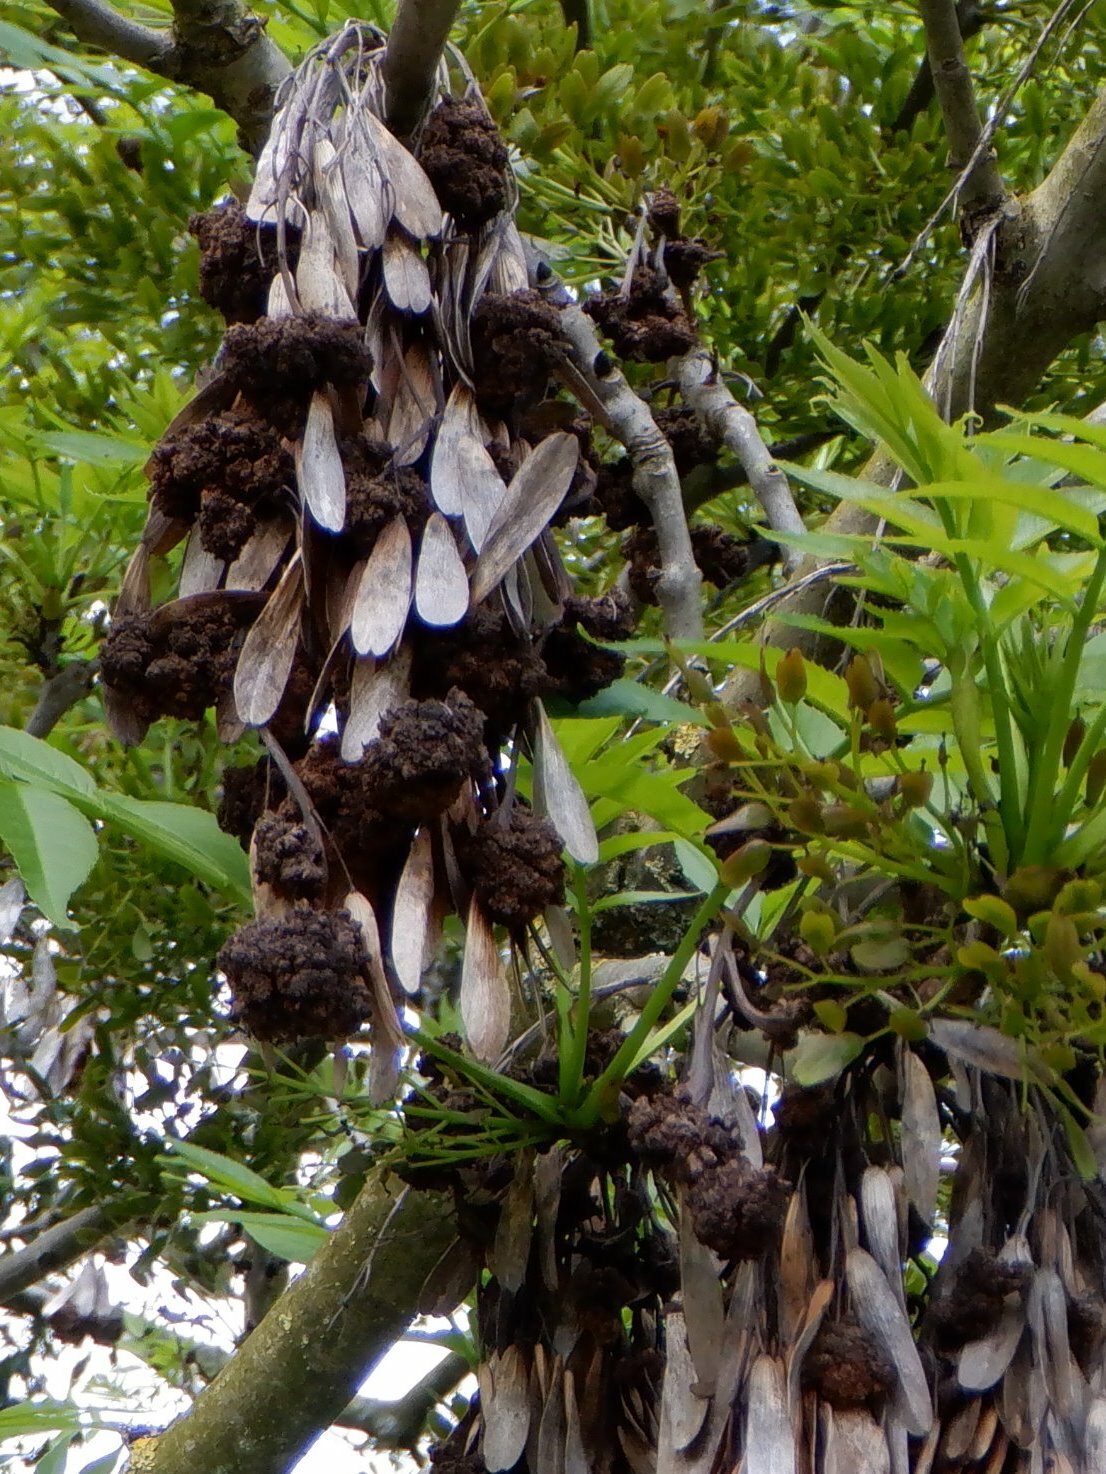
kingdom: Animalia
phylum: Arthropoda
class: Arachnida
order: Trombidiformes
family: Eriophyidae
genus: Aceria
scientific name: Aceria fraxinivora
